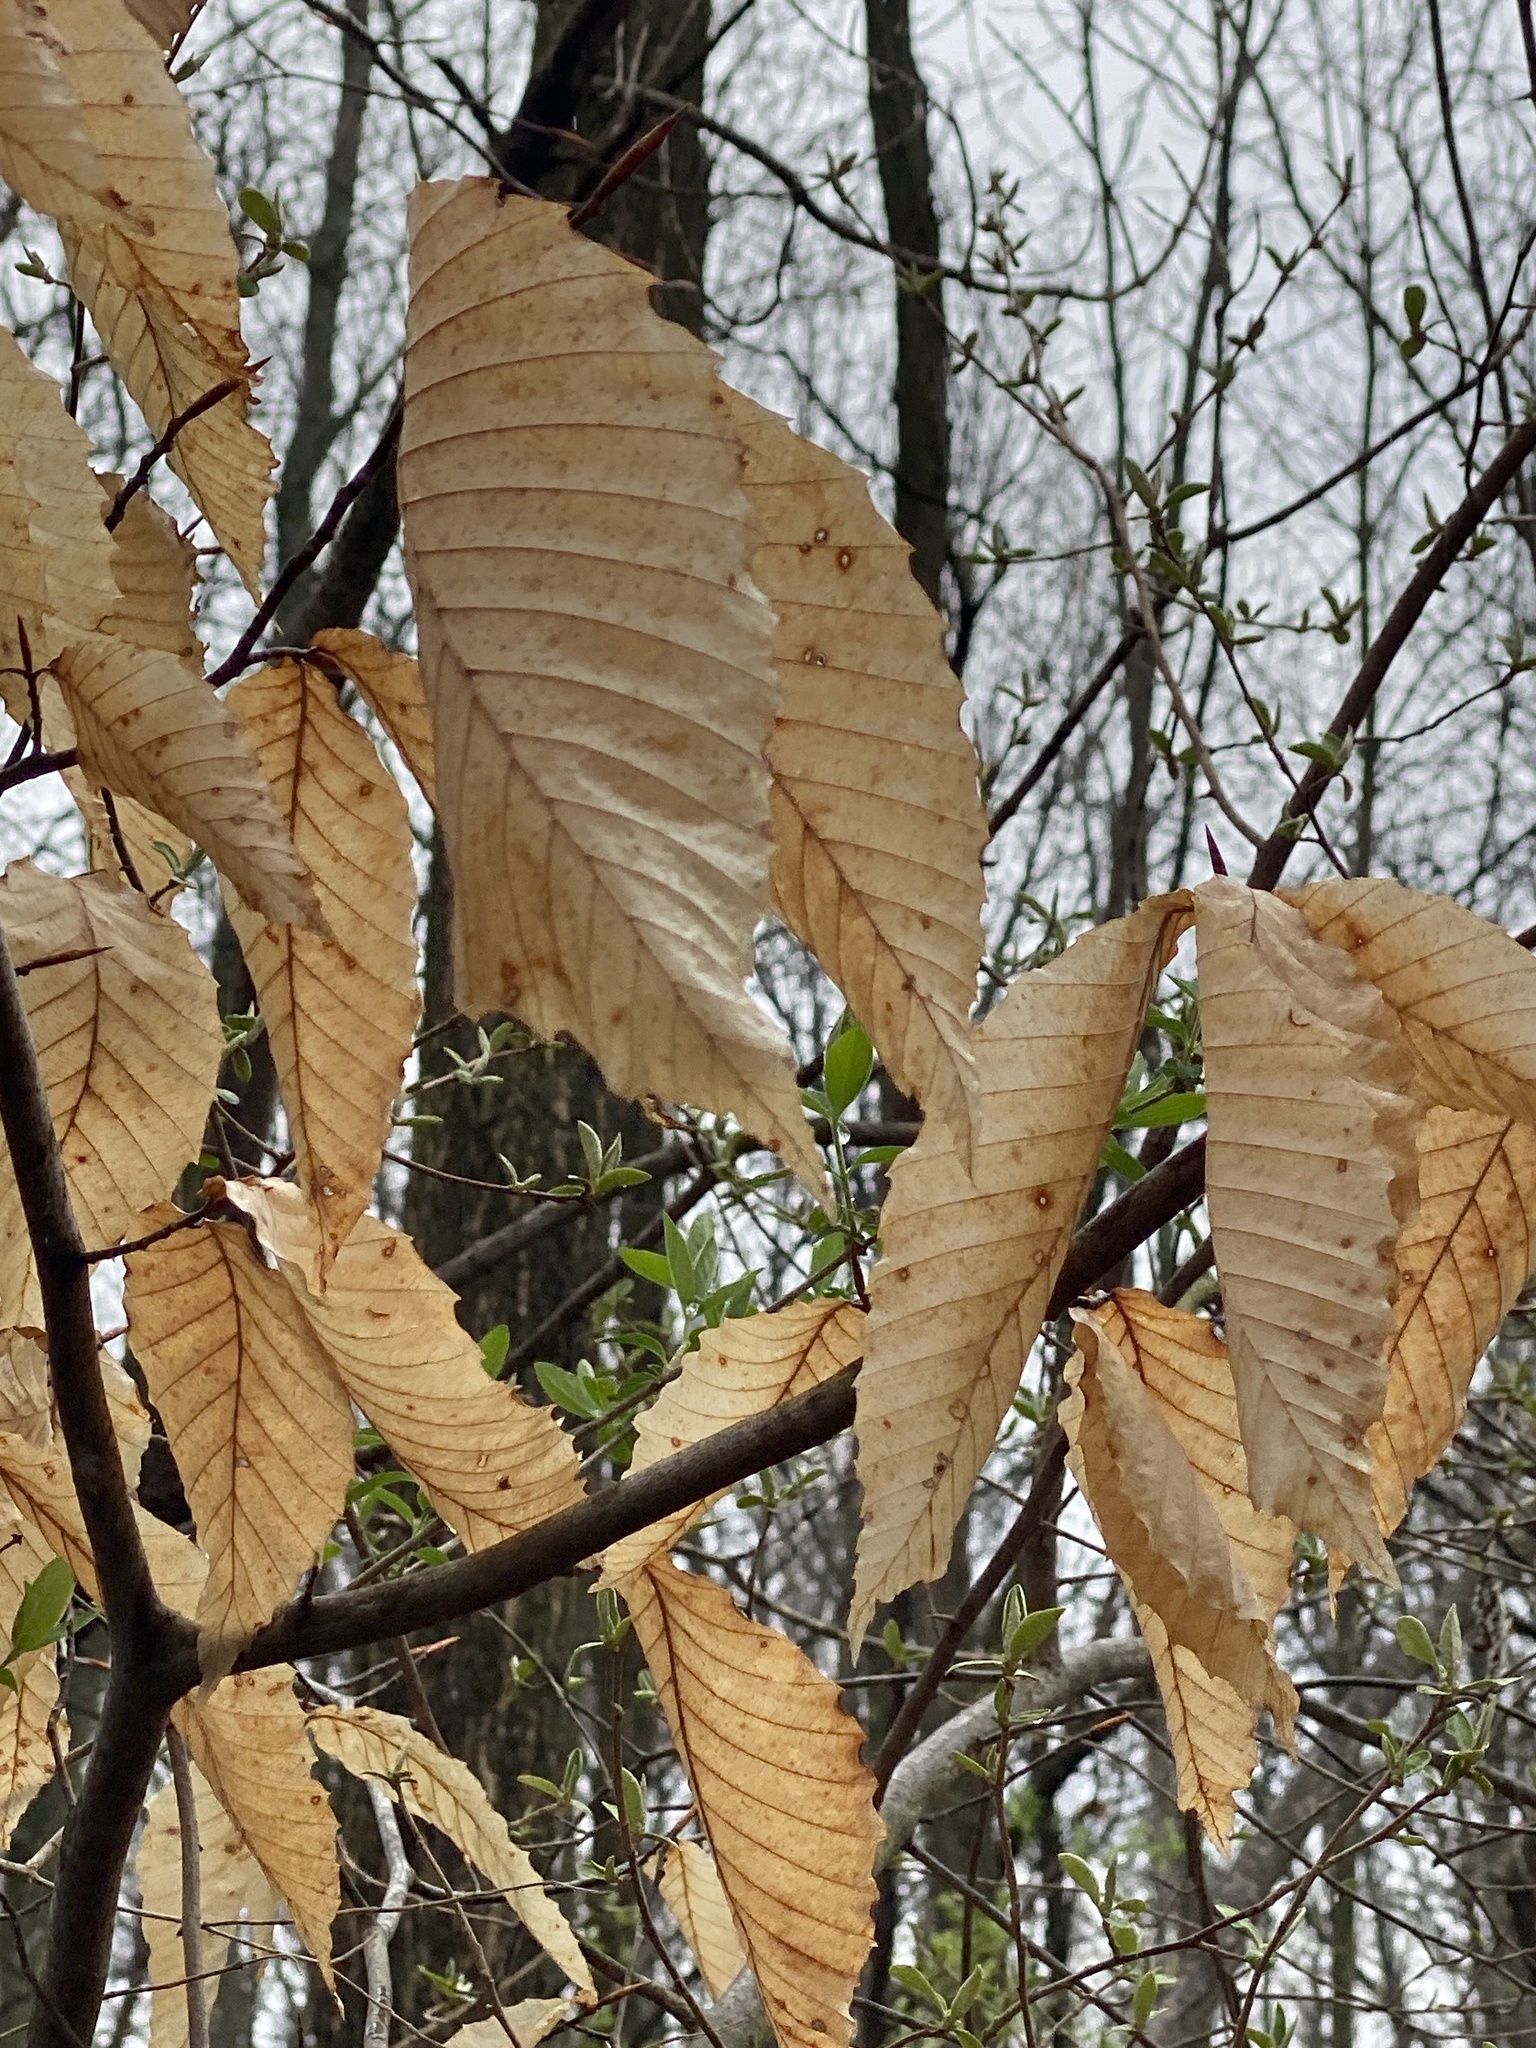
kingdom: Plantae
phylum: Tracheophyta
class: Magnoliopsida
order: Fagales
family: Fagaceae
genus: Fagus
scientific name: Fagus grandifolia
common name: American beech
